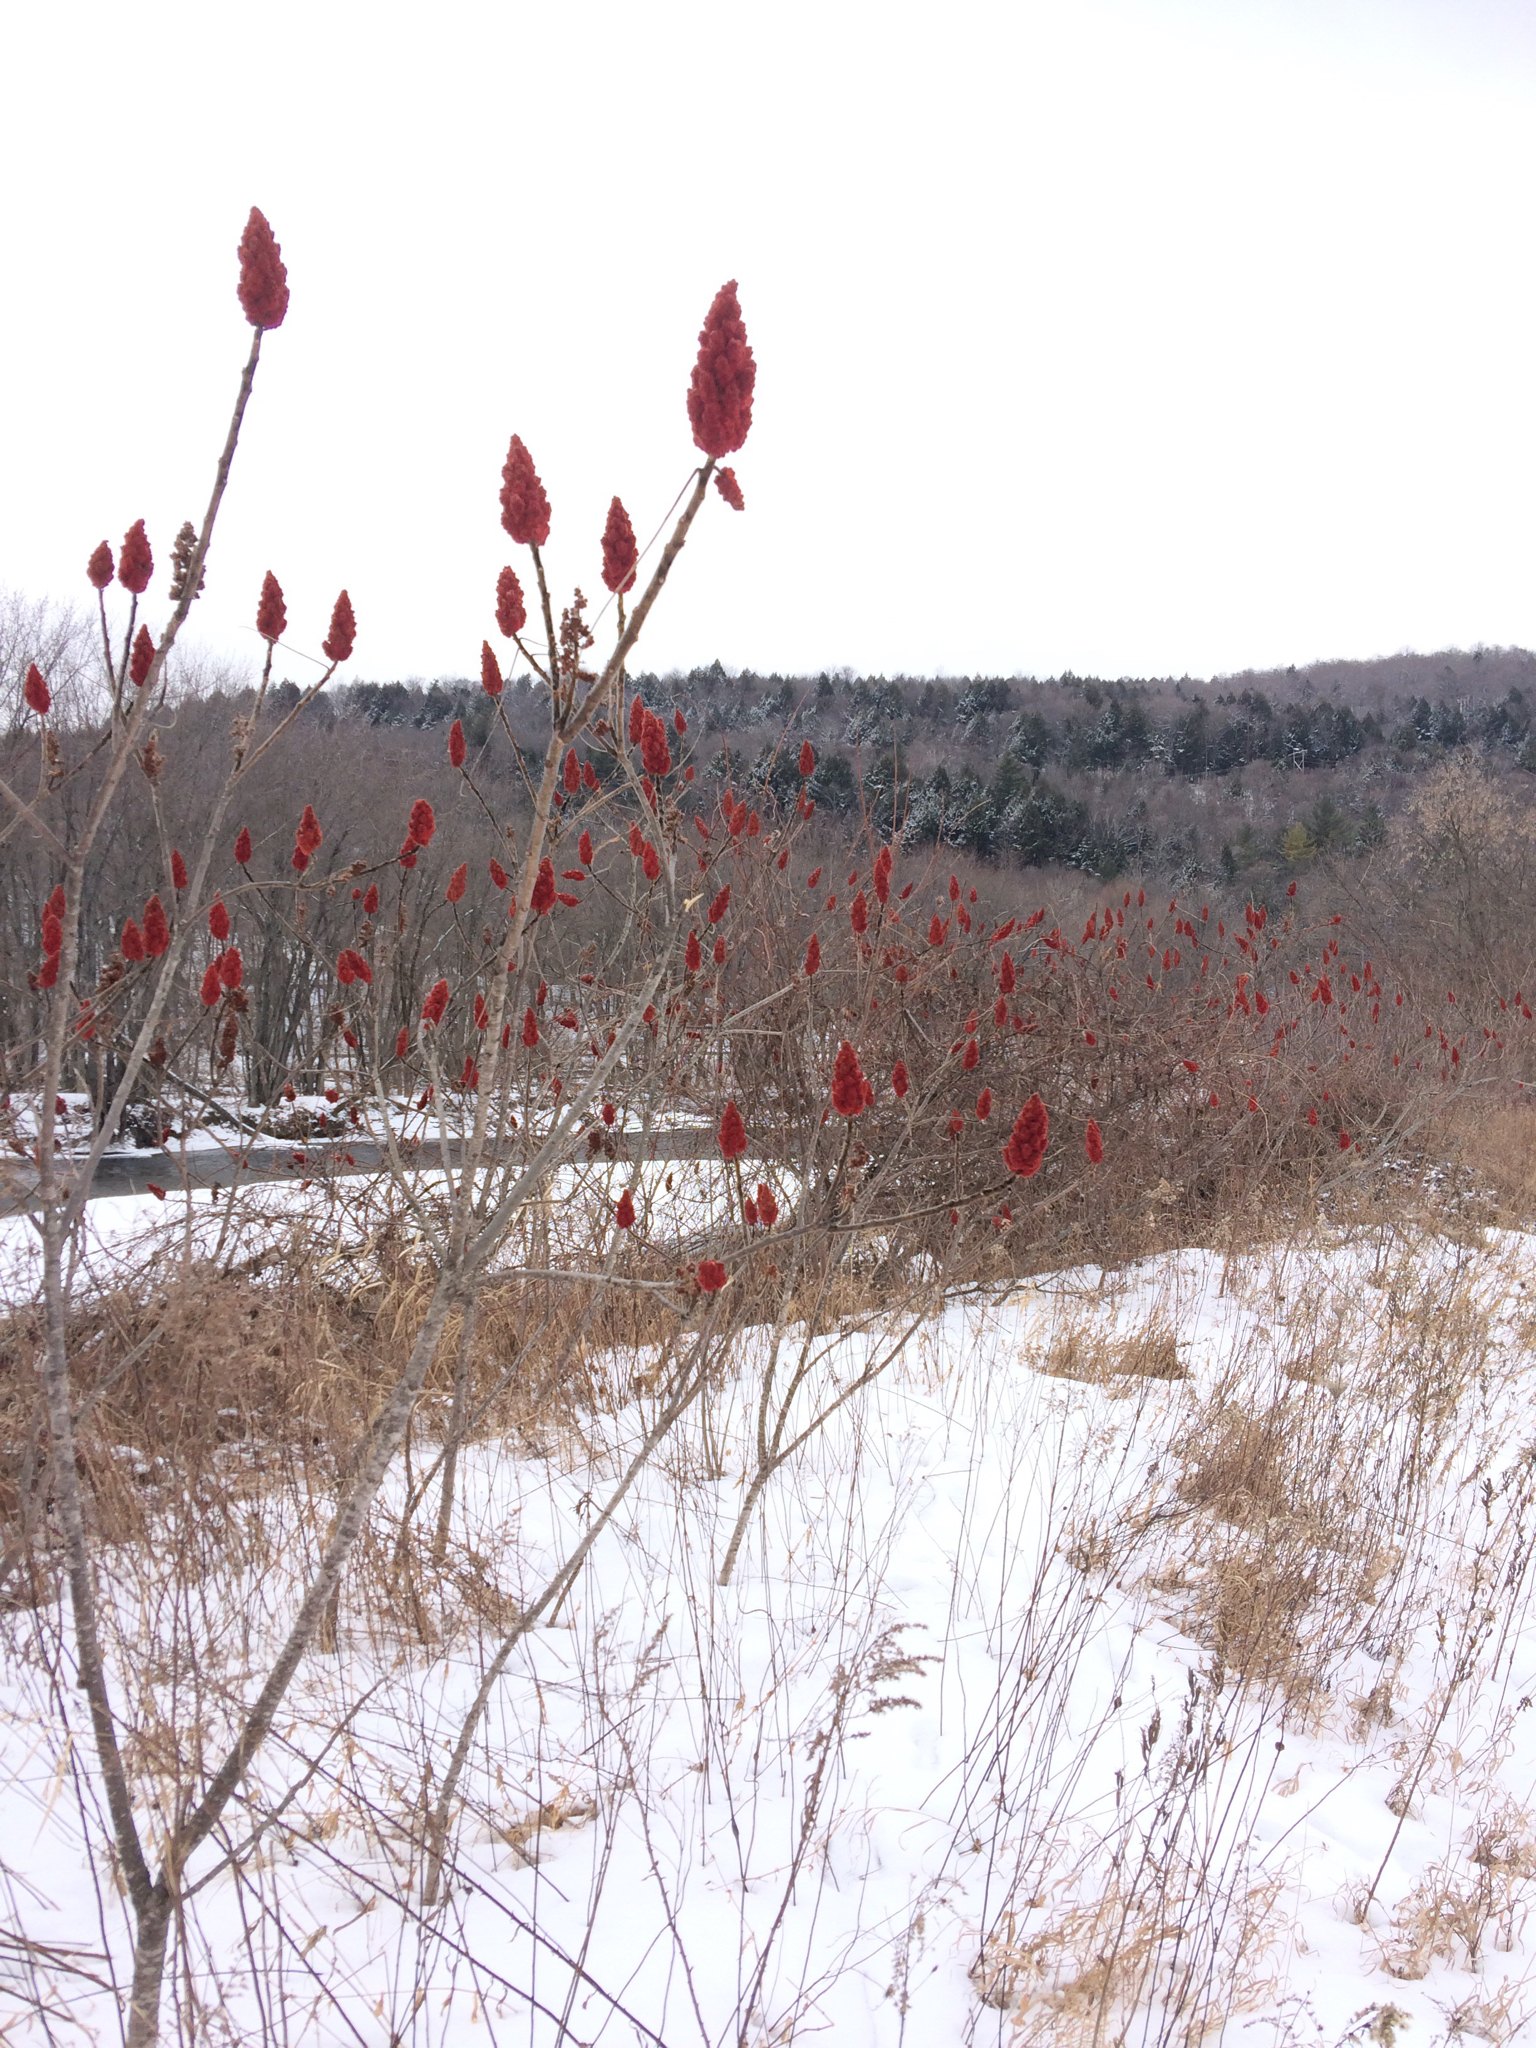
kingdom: Plantae
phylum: Tracheophyta
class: Magnoliopsida
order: Sapindales
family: Anacardiaceae
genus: Rhus
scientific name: Rhus typhina
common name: Staghorn sumac
